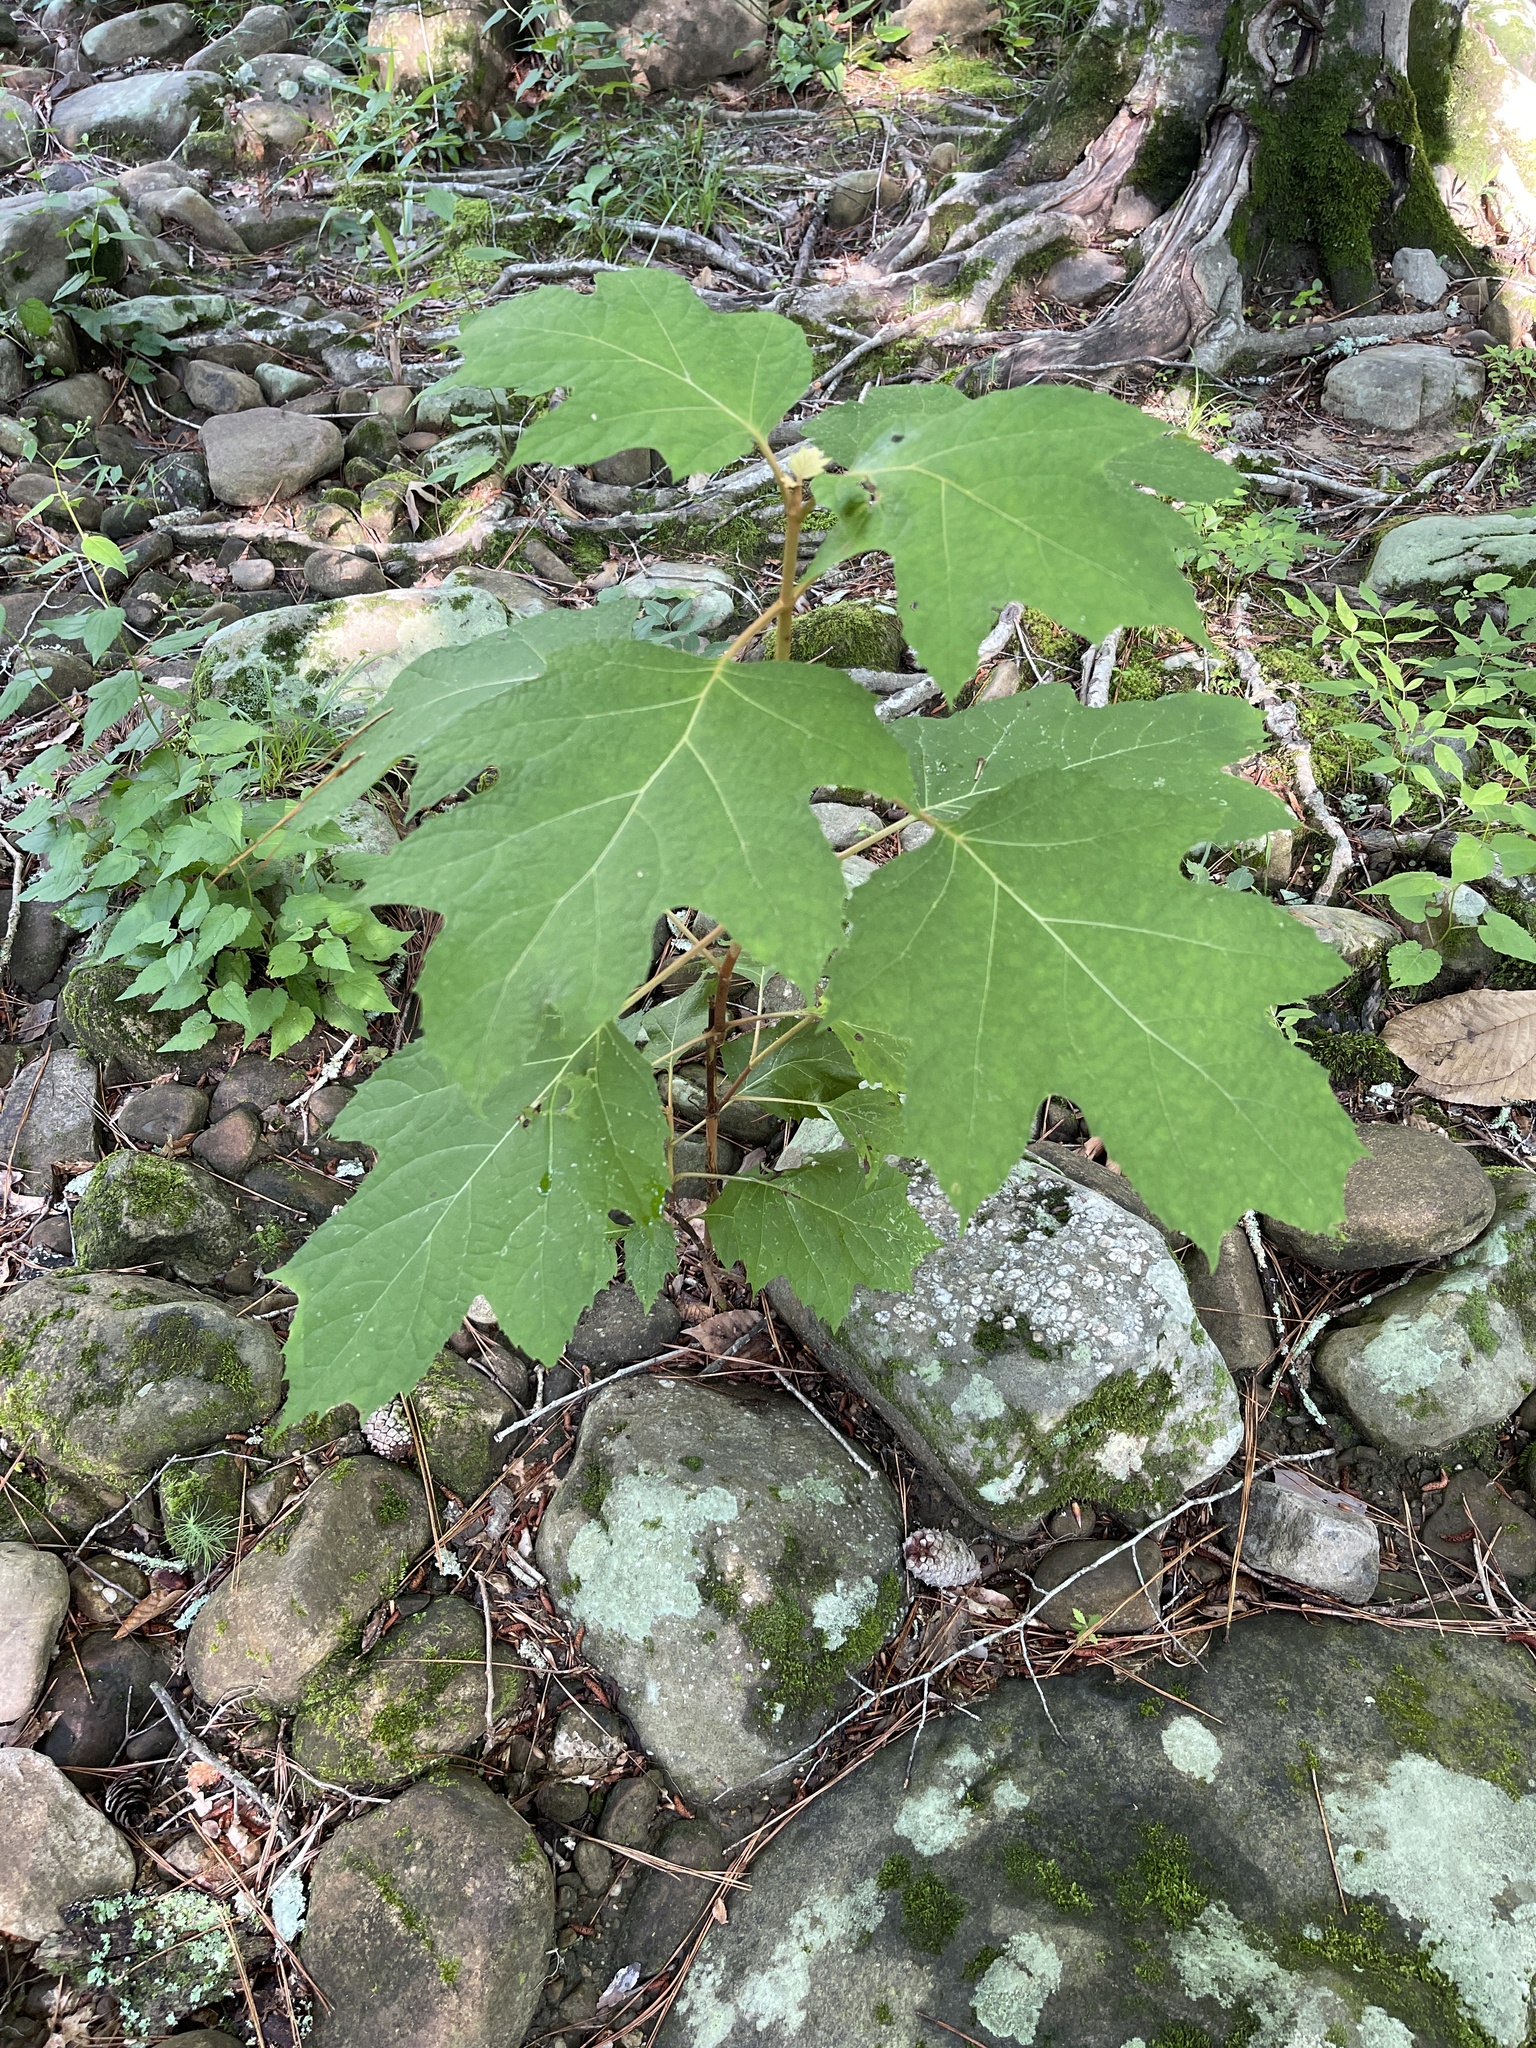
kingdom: Plantae
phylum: Tracheophyta
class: Magnoliopsida
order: Cornales
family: Hydrangeaceae
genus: Hydrangea
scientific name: Hydrangea quercifolia
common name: Oak-leaf hydrangea
